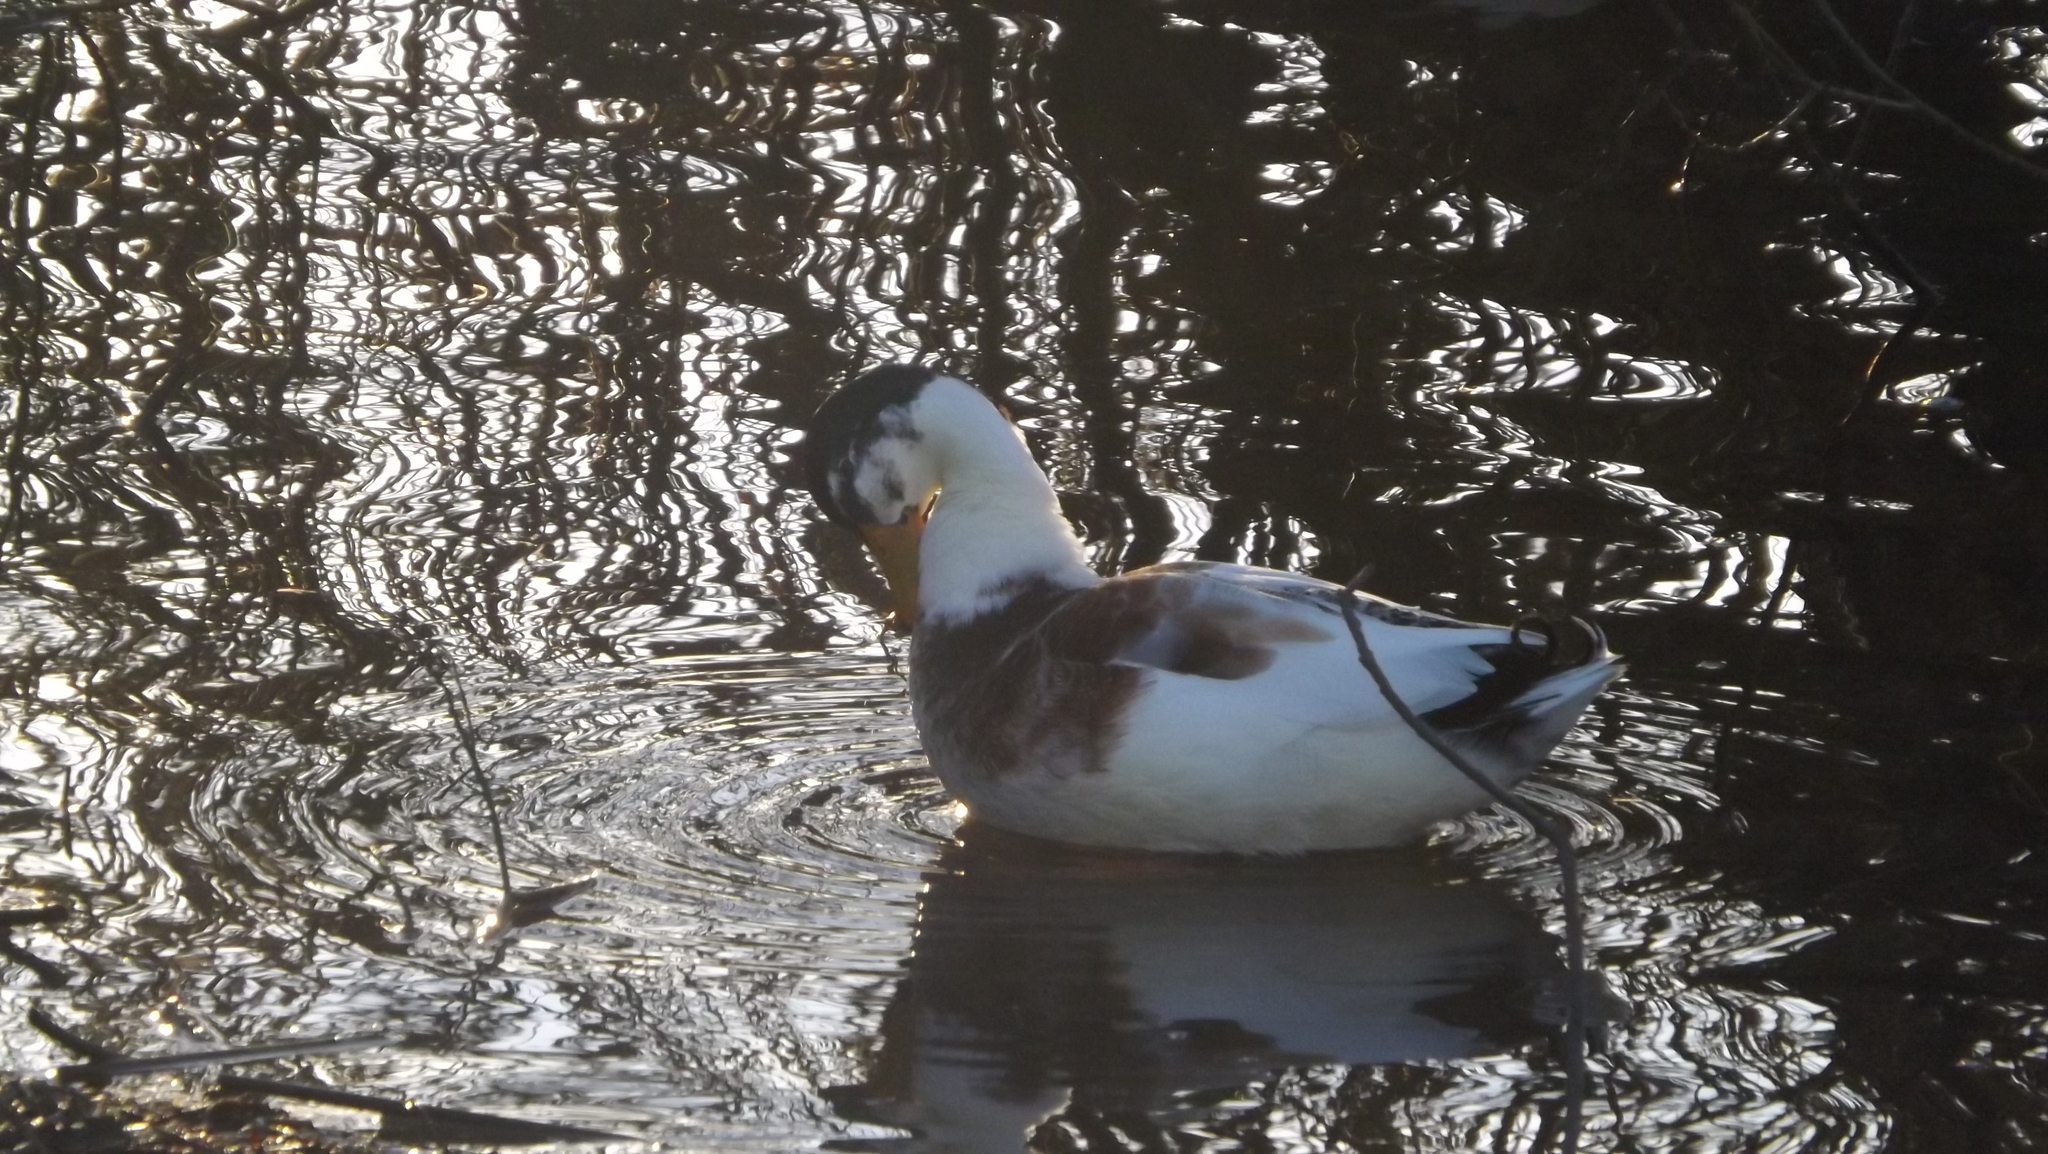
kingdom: Animalia
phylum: Chordata
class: Aves
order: Anseriformes
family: Anatidae
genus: Anas
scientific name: Anas platyrhynchos
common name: Mallard
